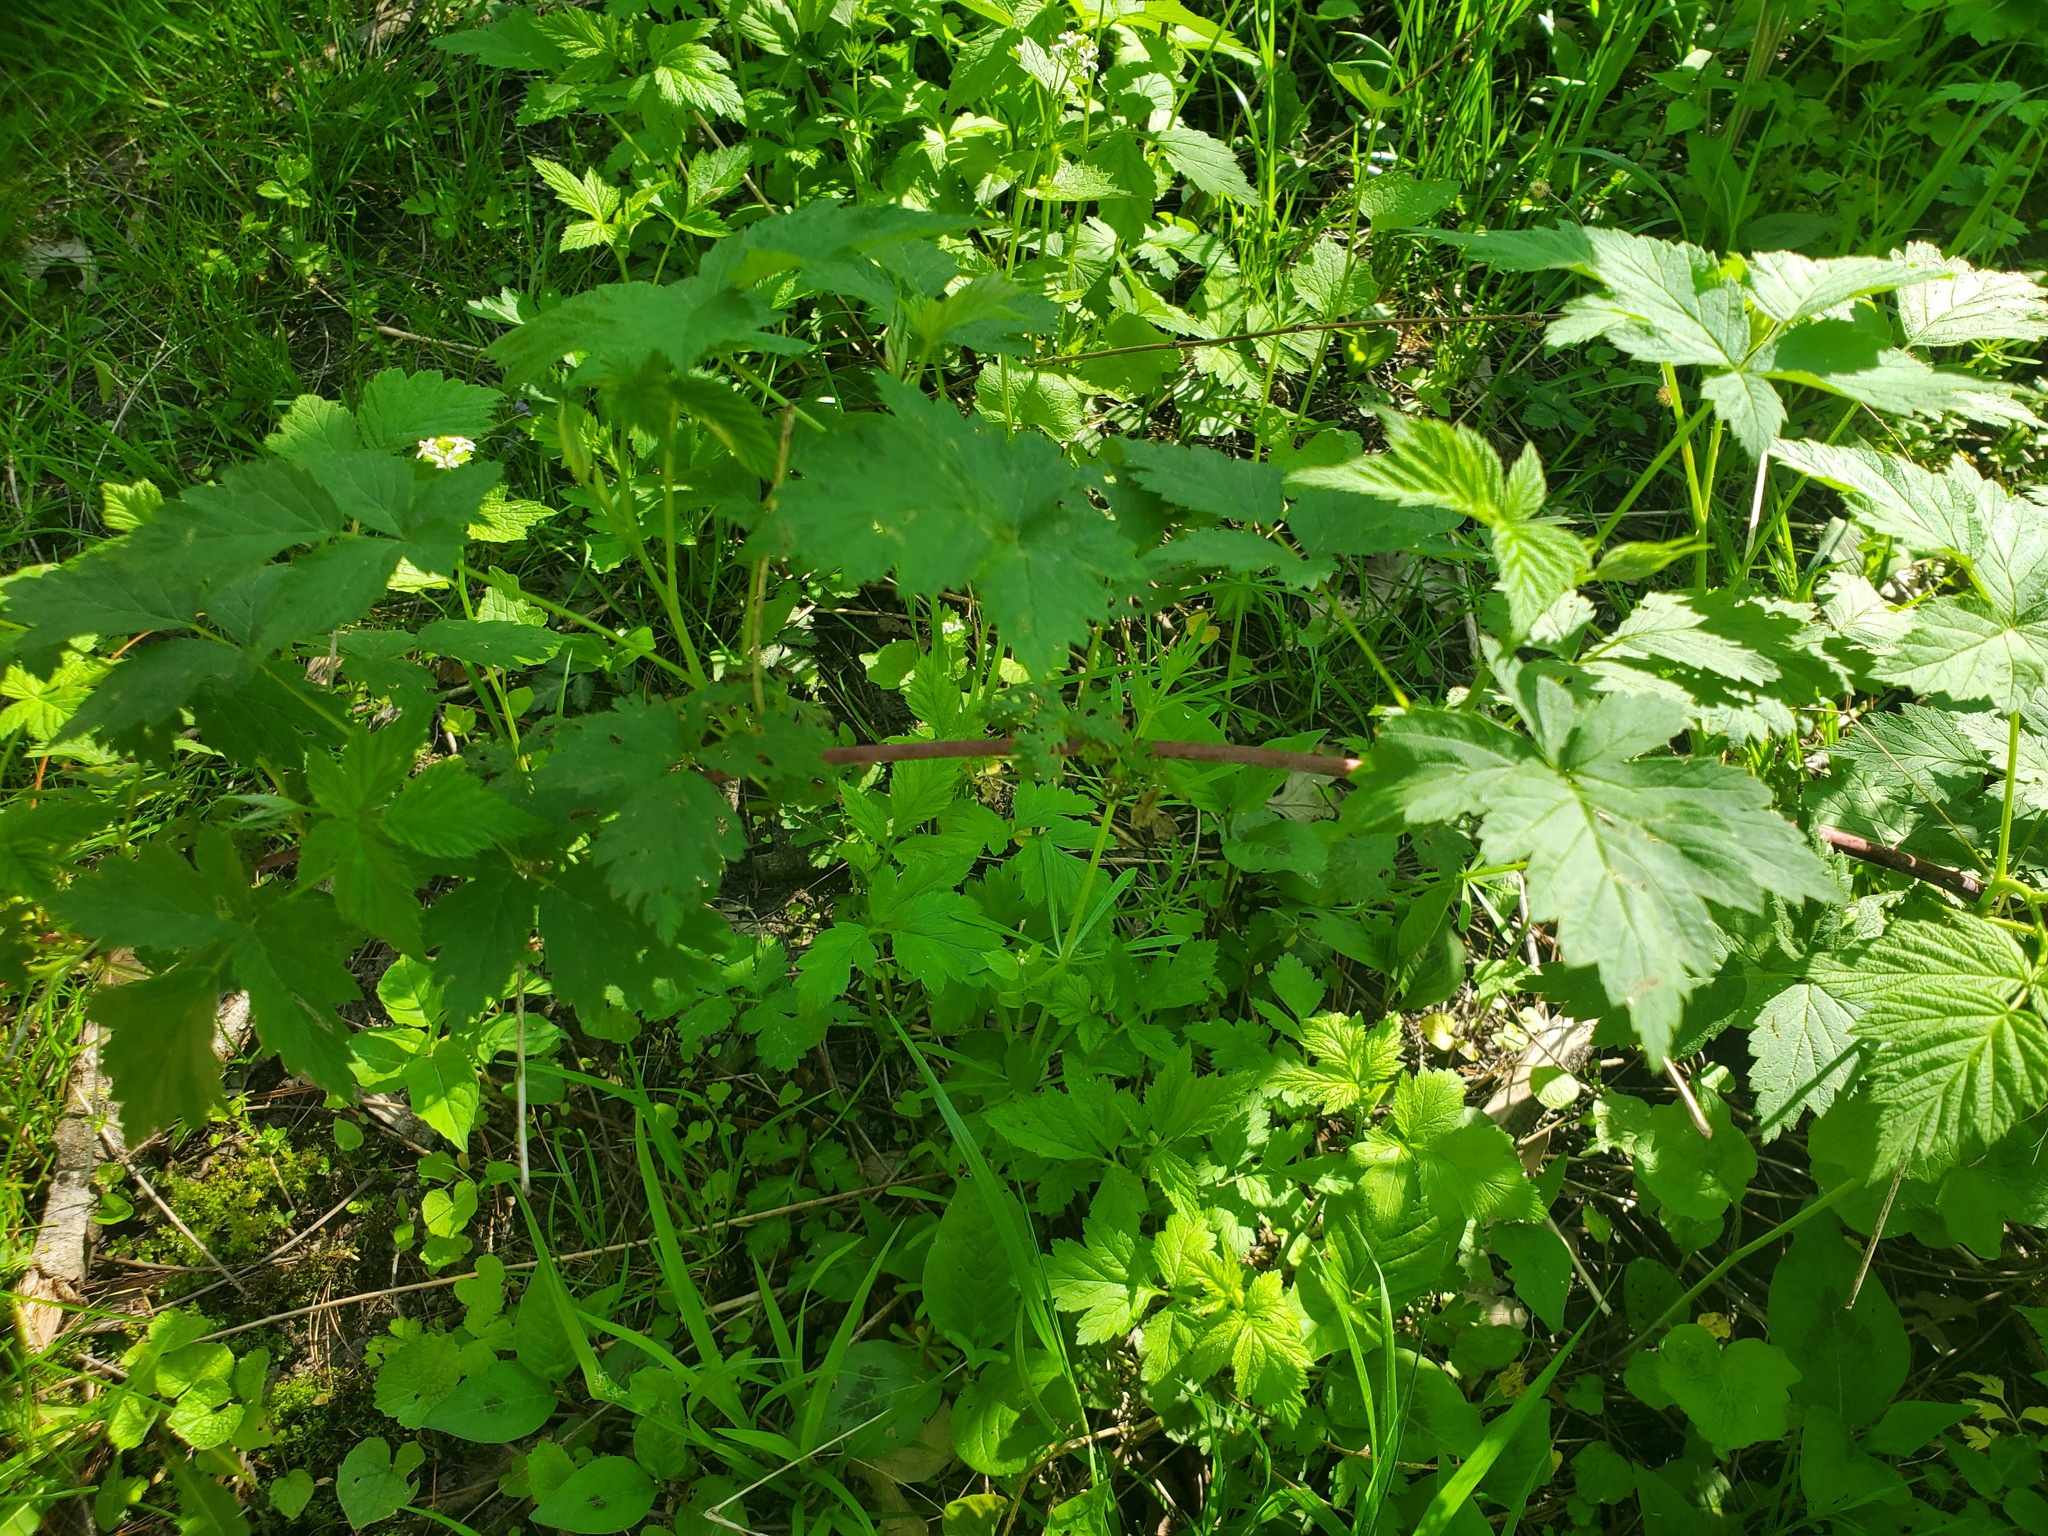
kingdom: Plantae
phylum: Tracheophyta
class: Magnoliopsida
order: Rosales
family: Rosaceae
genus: Rubus
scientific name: Rubus occidentalis
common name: Black raspberry
